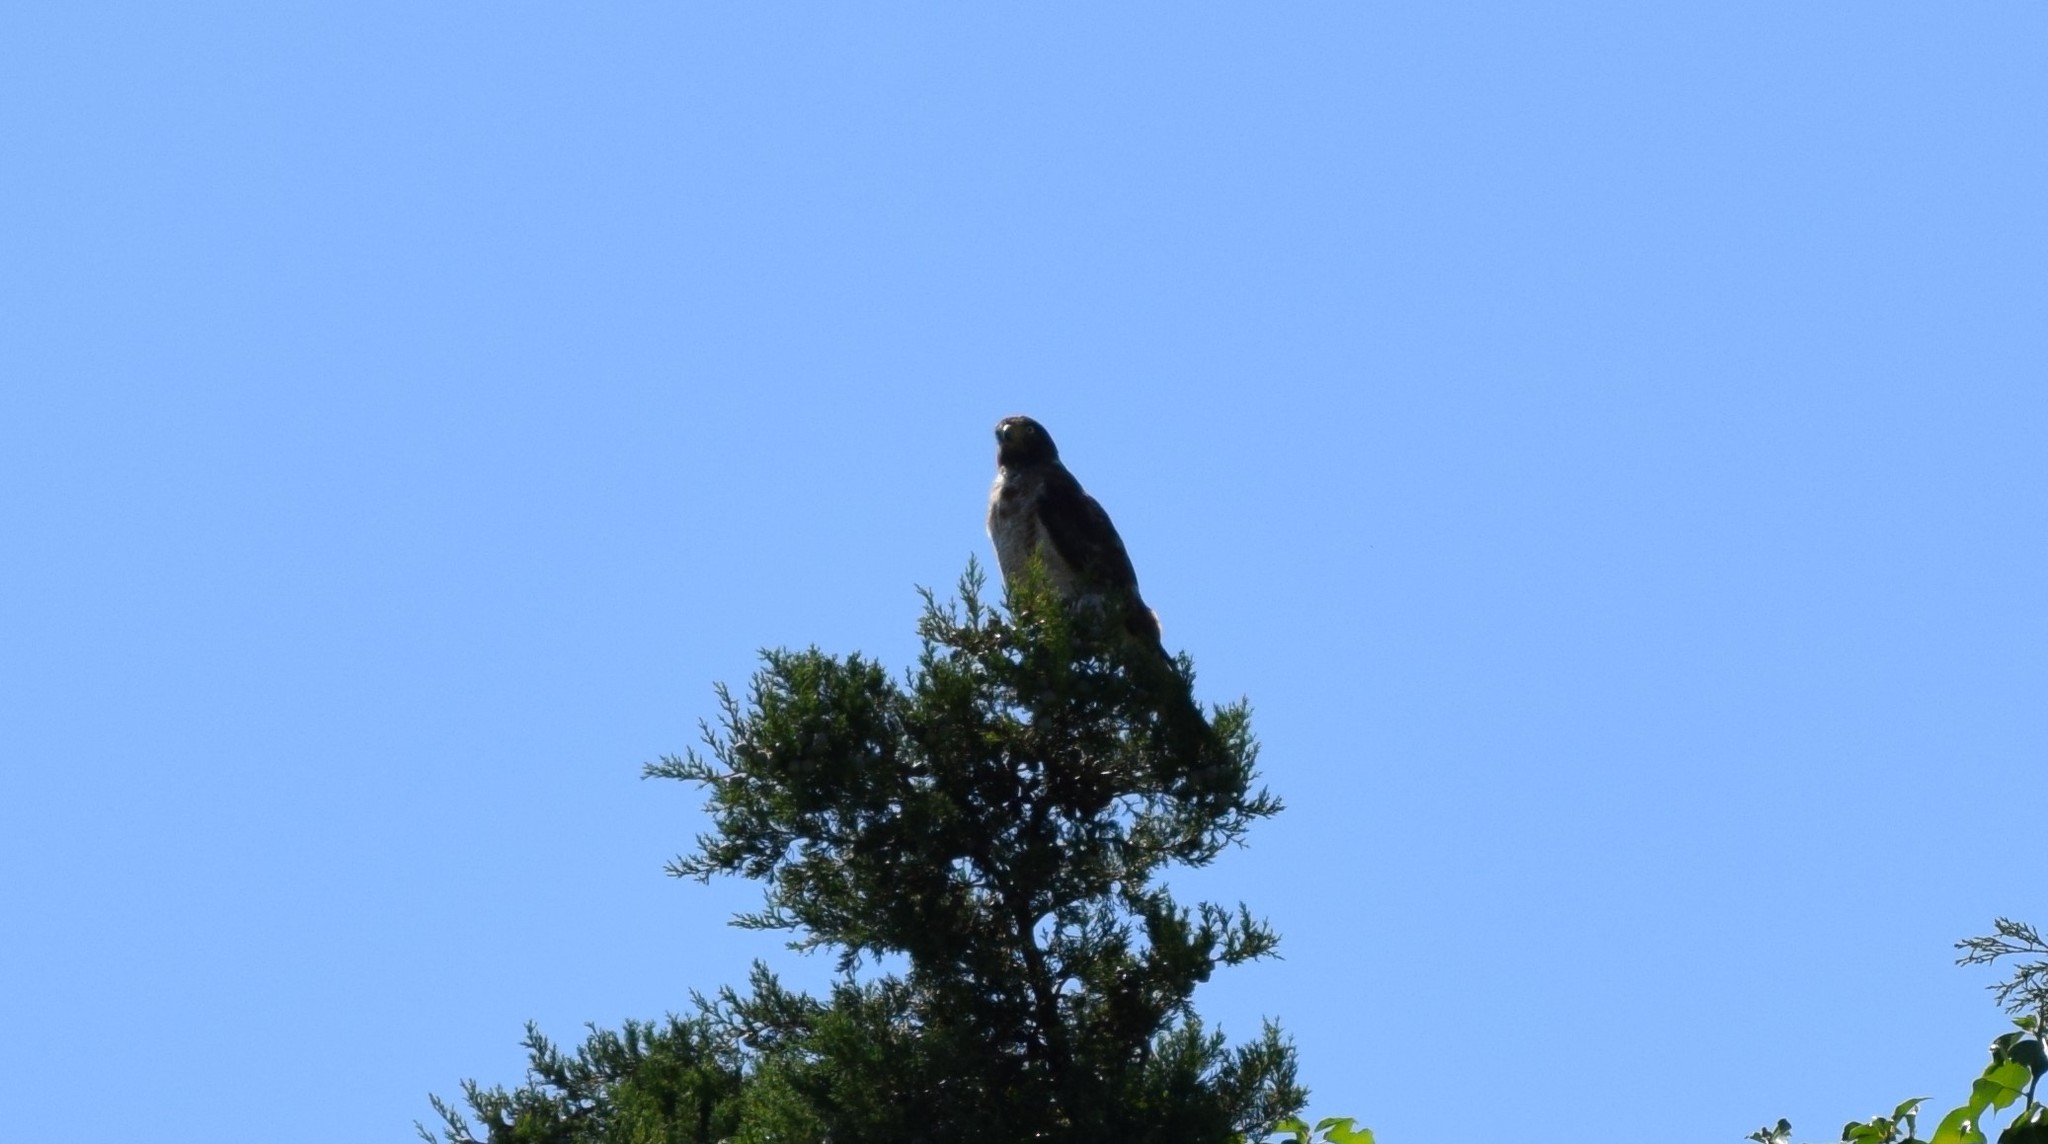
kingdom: Animalia
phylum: Chordata
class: Aves
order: Accipitriformes
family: Accipitridae
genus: Rupornis
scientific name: Rupornis magnirostris
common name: Roadside hawk
